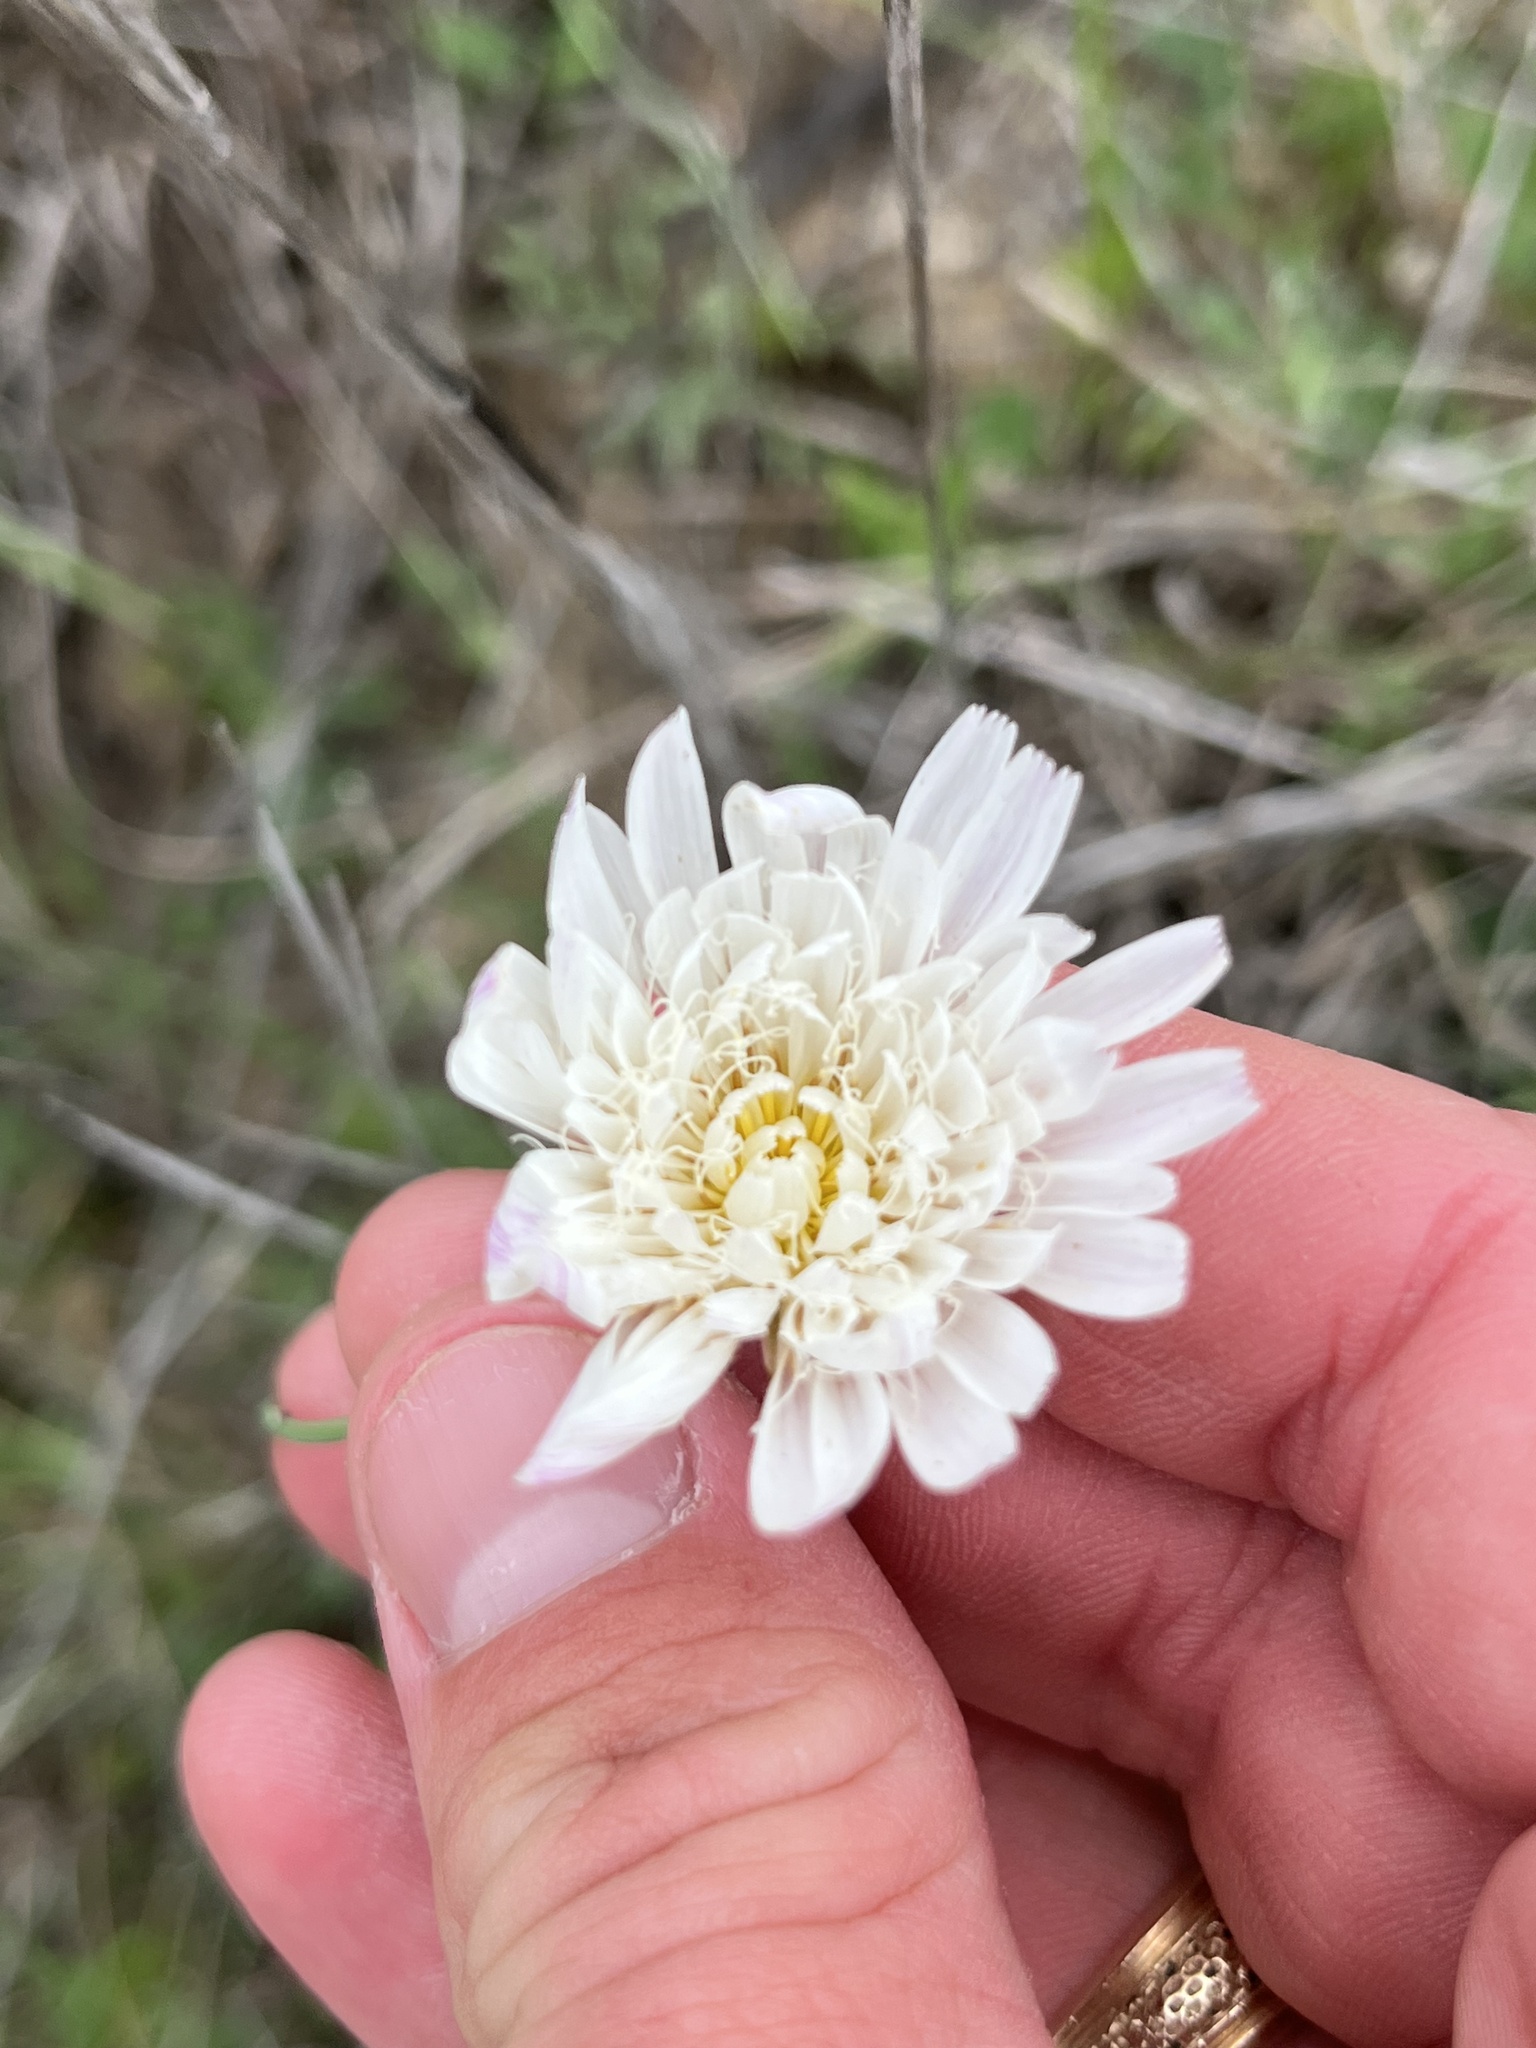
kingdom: Plantae
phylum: Tracheophyta
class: Magnoliopsida
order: Asterales
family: Asteraceae
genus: Pinaropappus
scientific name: Pinaropappus roseus
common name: Rock-lettuce
